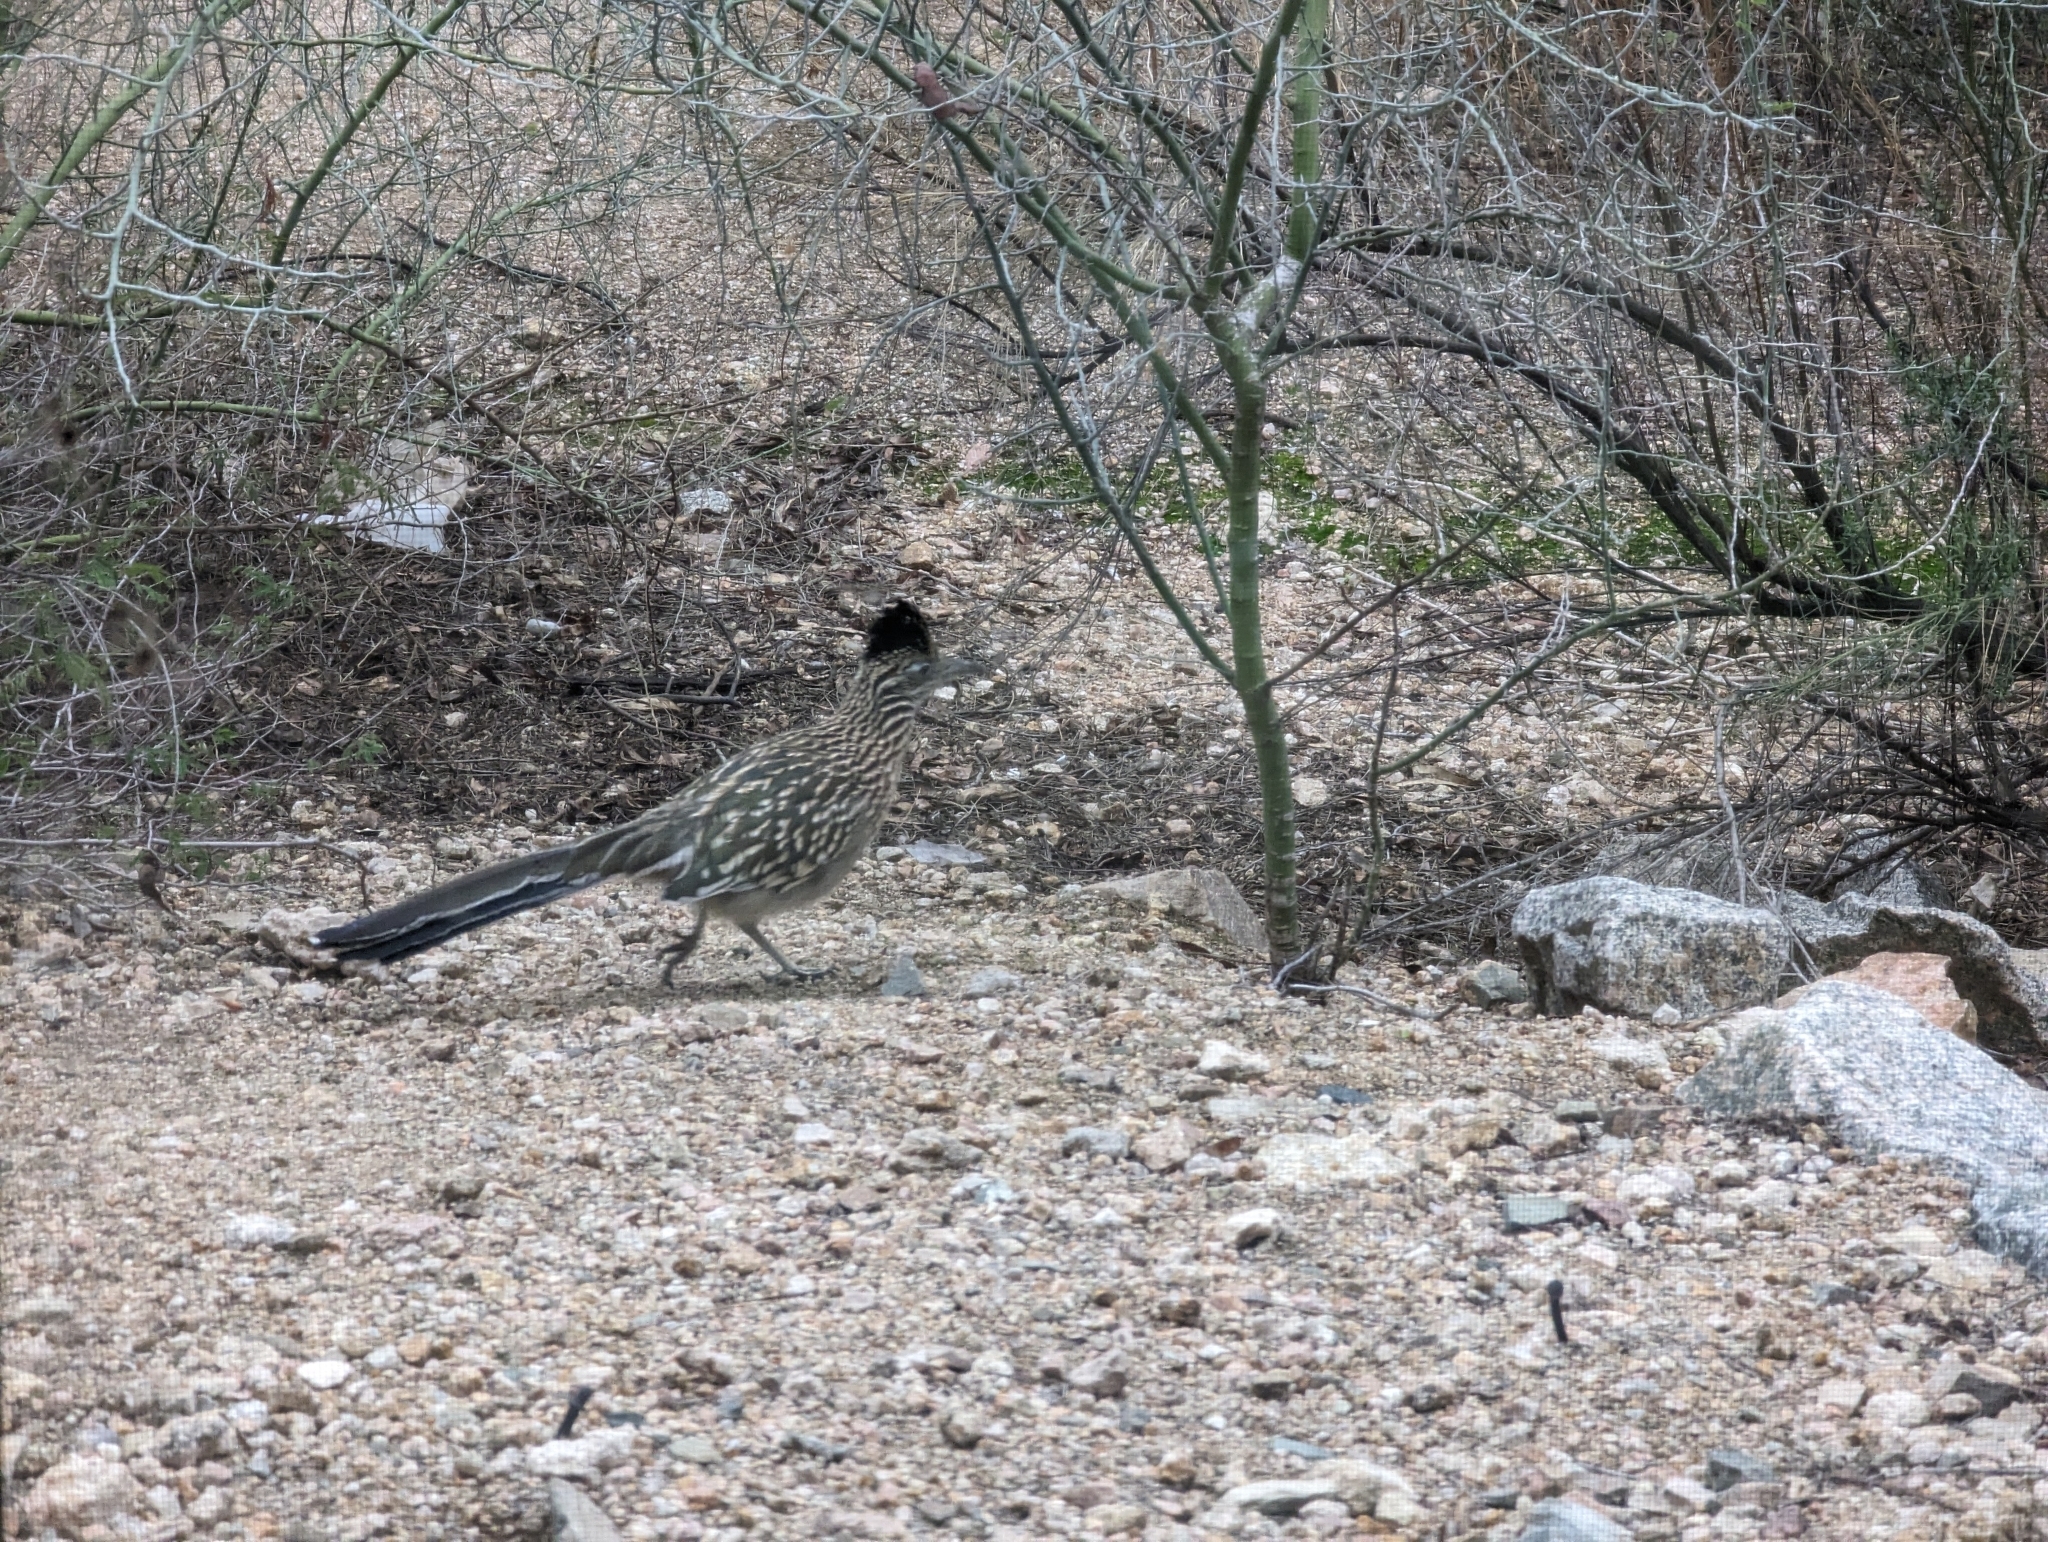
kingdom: Animalia
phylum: Chordata
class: Aves
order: Cuculiformes
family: Cuculidae
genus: Geococcyx
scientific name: Geococcyx californianus
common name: Greater roadrunner
